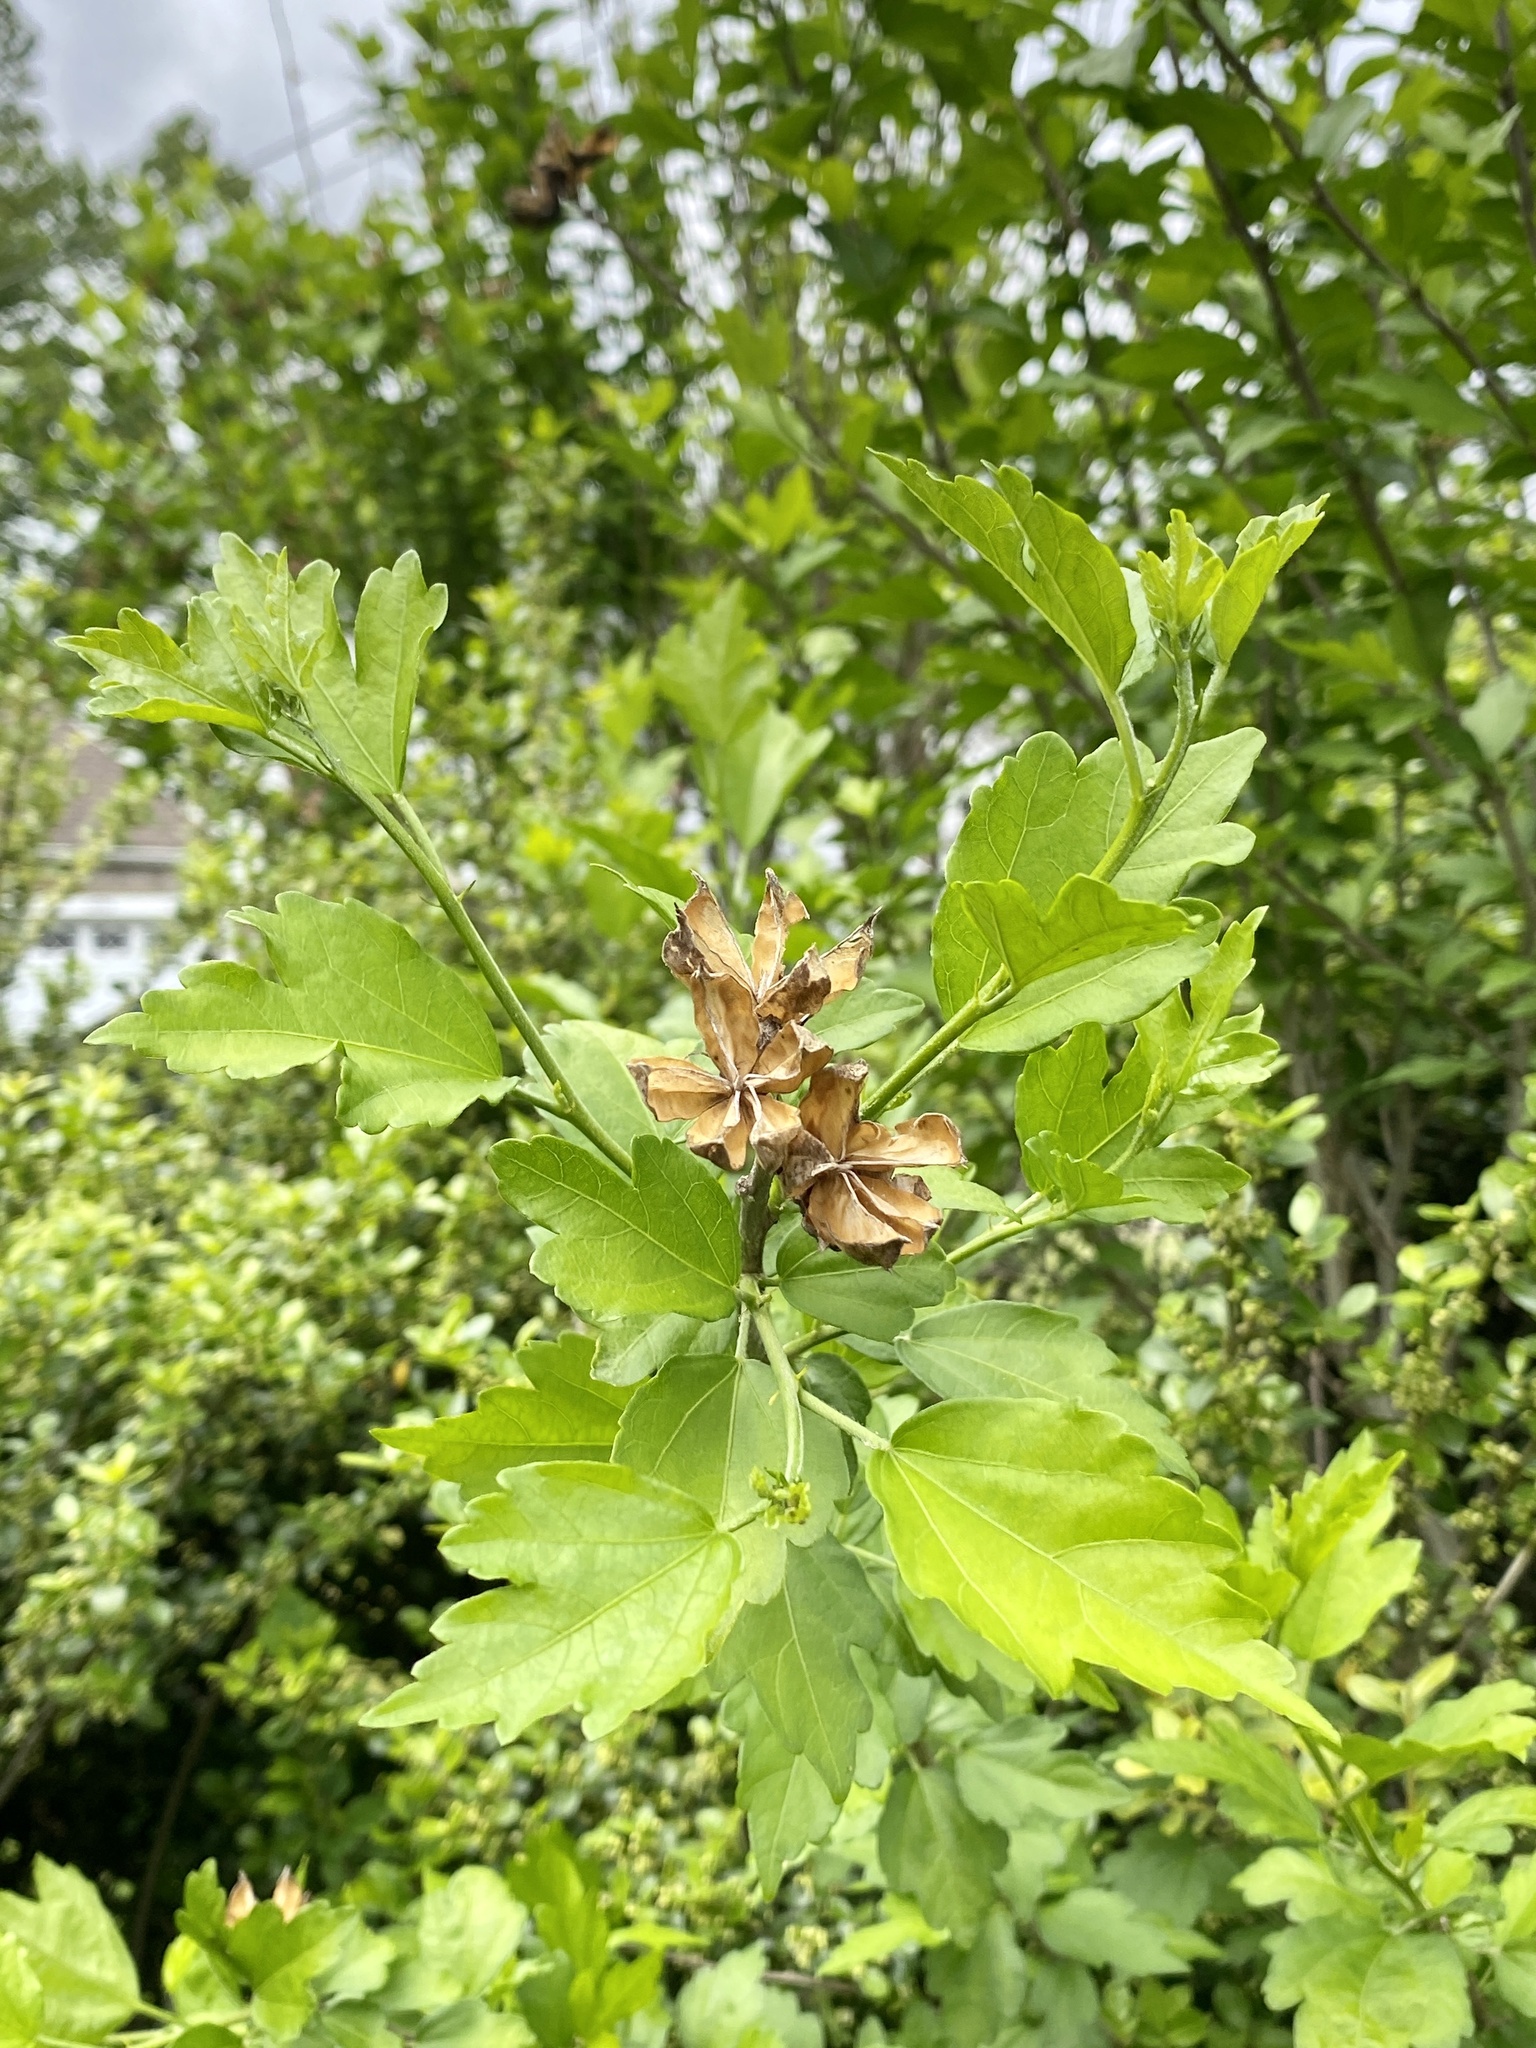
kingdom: Plantae
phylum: Tracheophyta
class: Magnoliopsida
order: Malvales
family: Malvaceae
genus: Hibiscus
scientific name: Hibiscus syriacus
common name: Syrian ketmia
